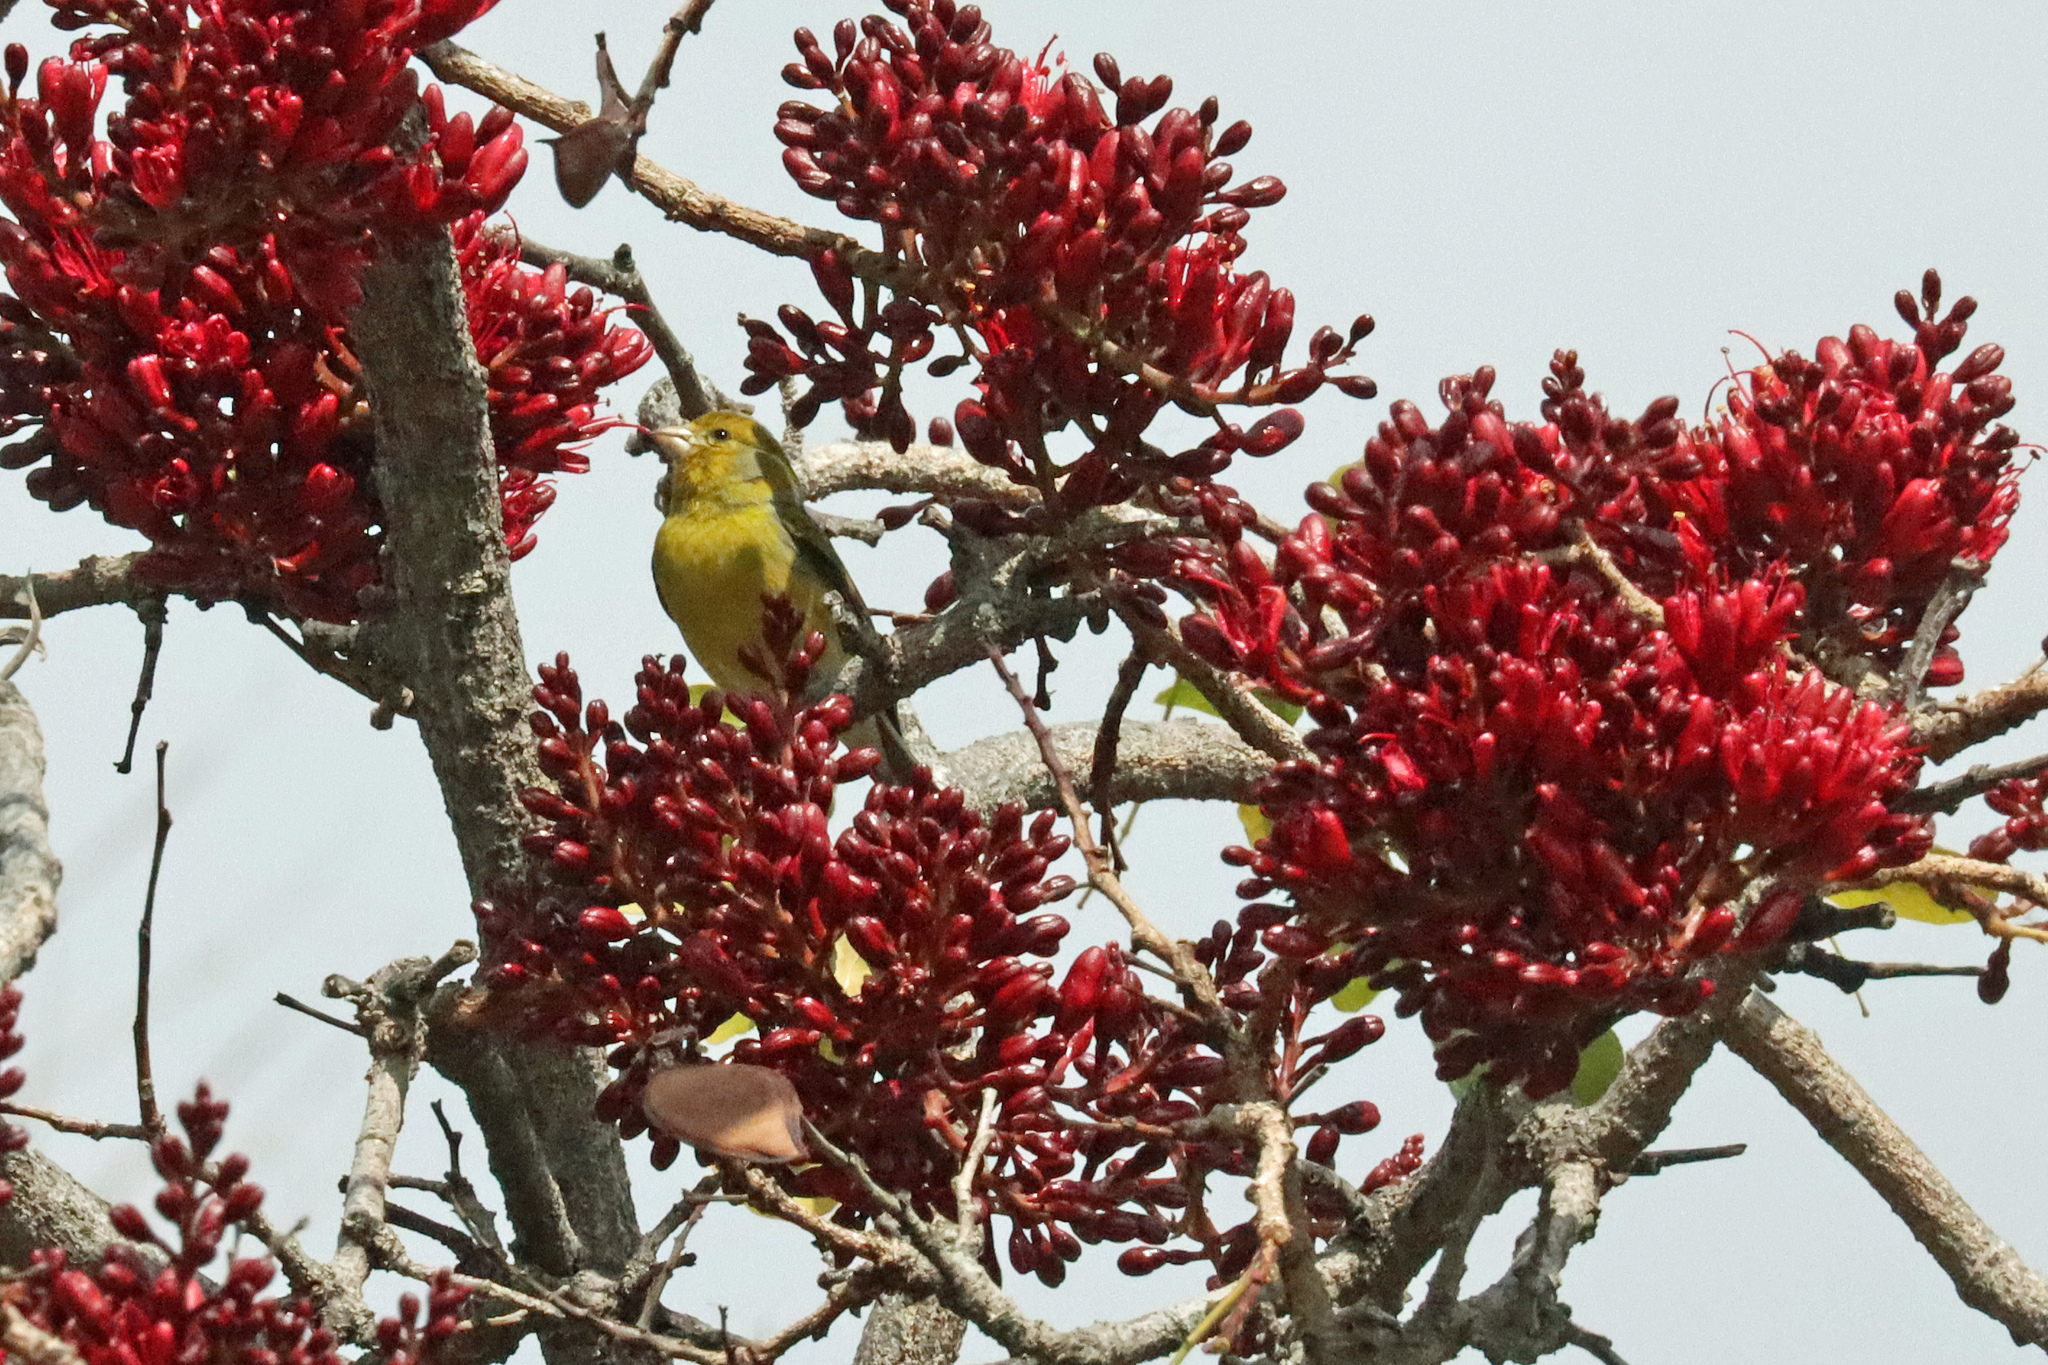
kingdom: Animalia
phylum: Chordata
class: Aves
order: Passeriformes
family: Fringillidae
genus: Serinus
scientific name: Serinus canaria
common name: Atlantic canary
